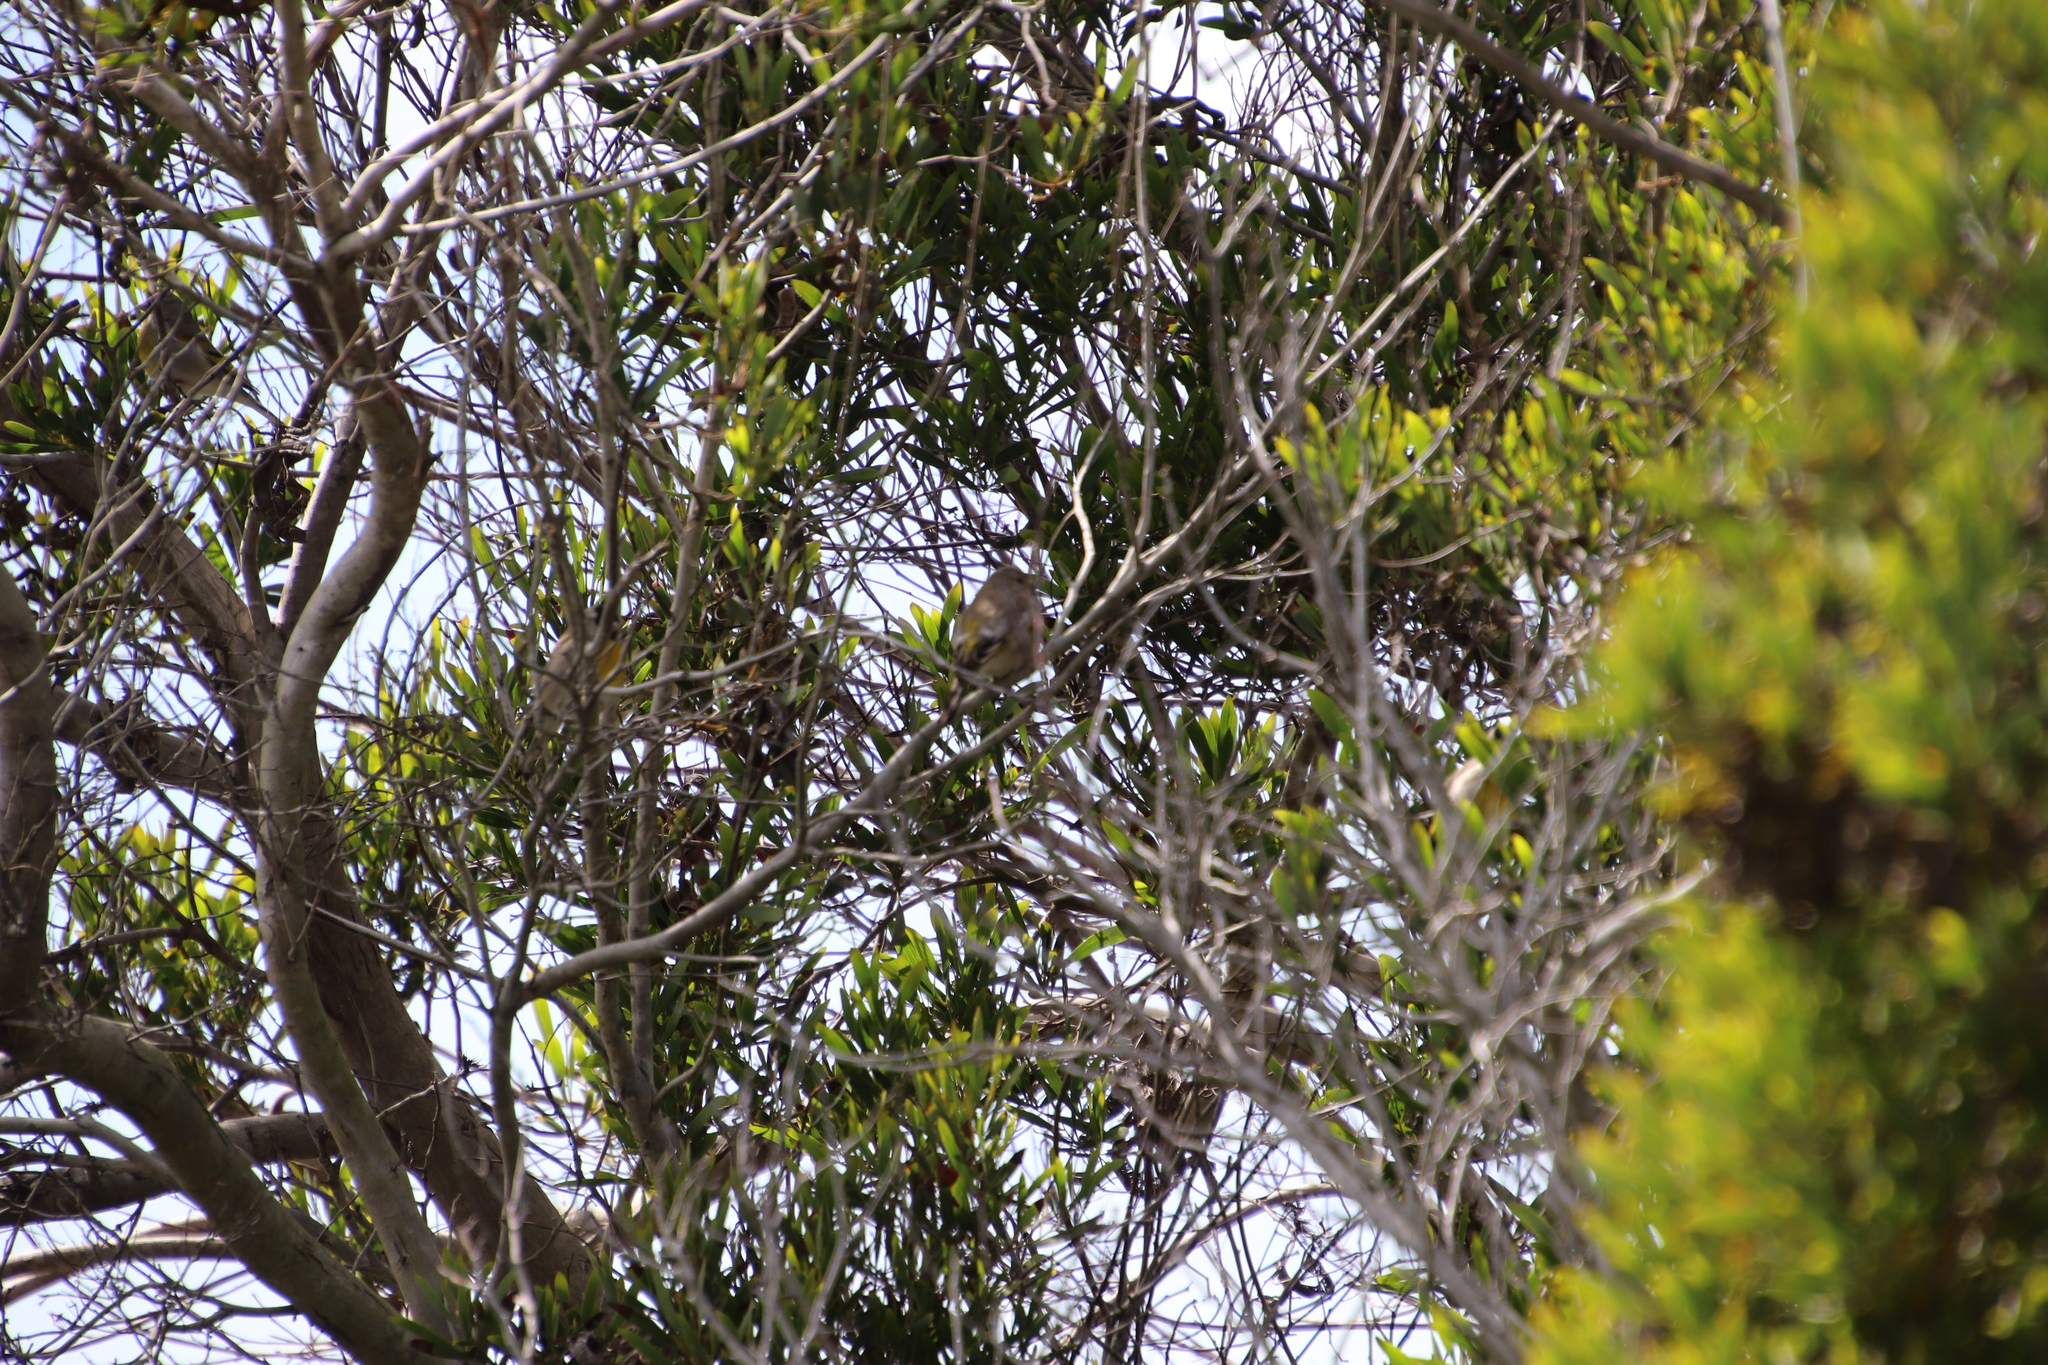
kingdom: Animalia
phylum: Chordata
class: Aves
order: Passeriformes
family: Fringillidae
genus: Spinus
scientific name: Spinus lawrencei
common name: Lawrence's goldfinch
